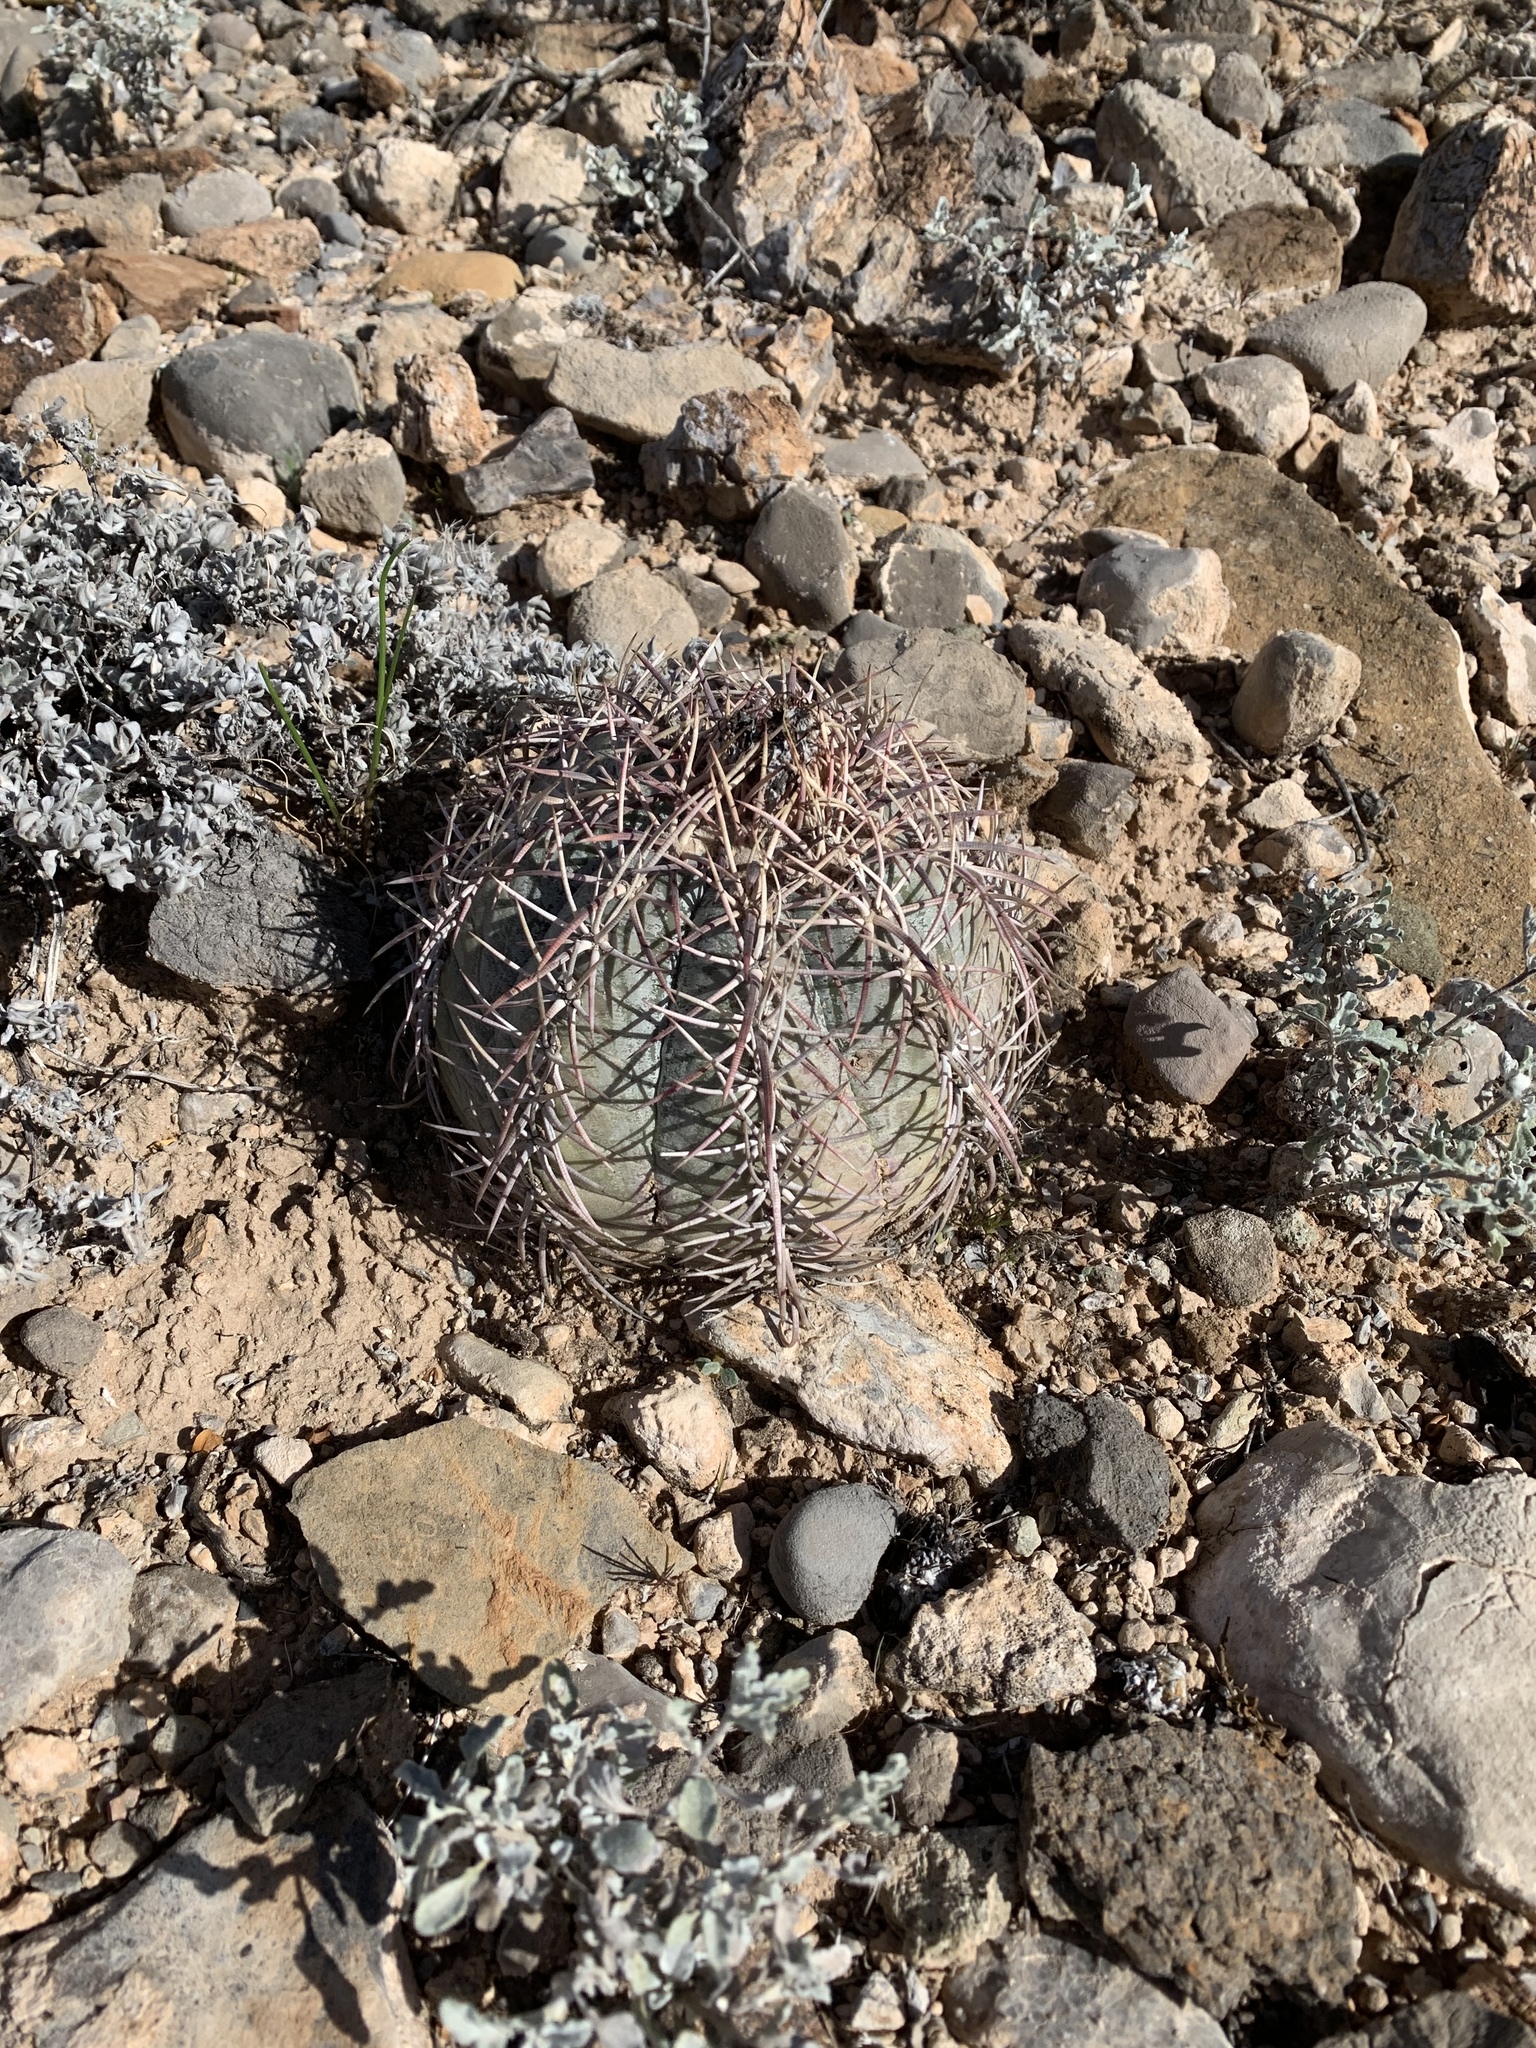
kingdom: Plantae
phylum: Tracheophyta
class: Magnoliopsida
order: Caryophyllales
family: Cactaceae
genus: Echinocactus
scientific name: Echinocactus horizonthalonius
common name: Devilshead
